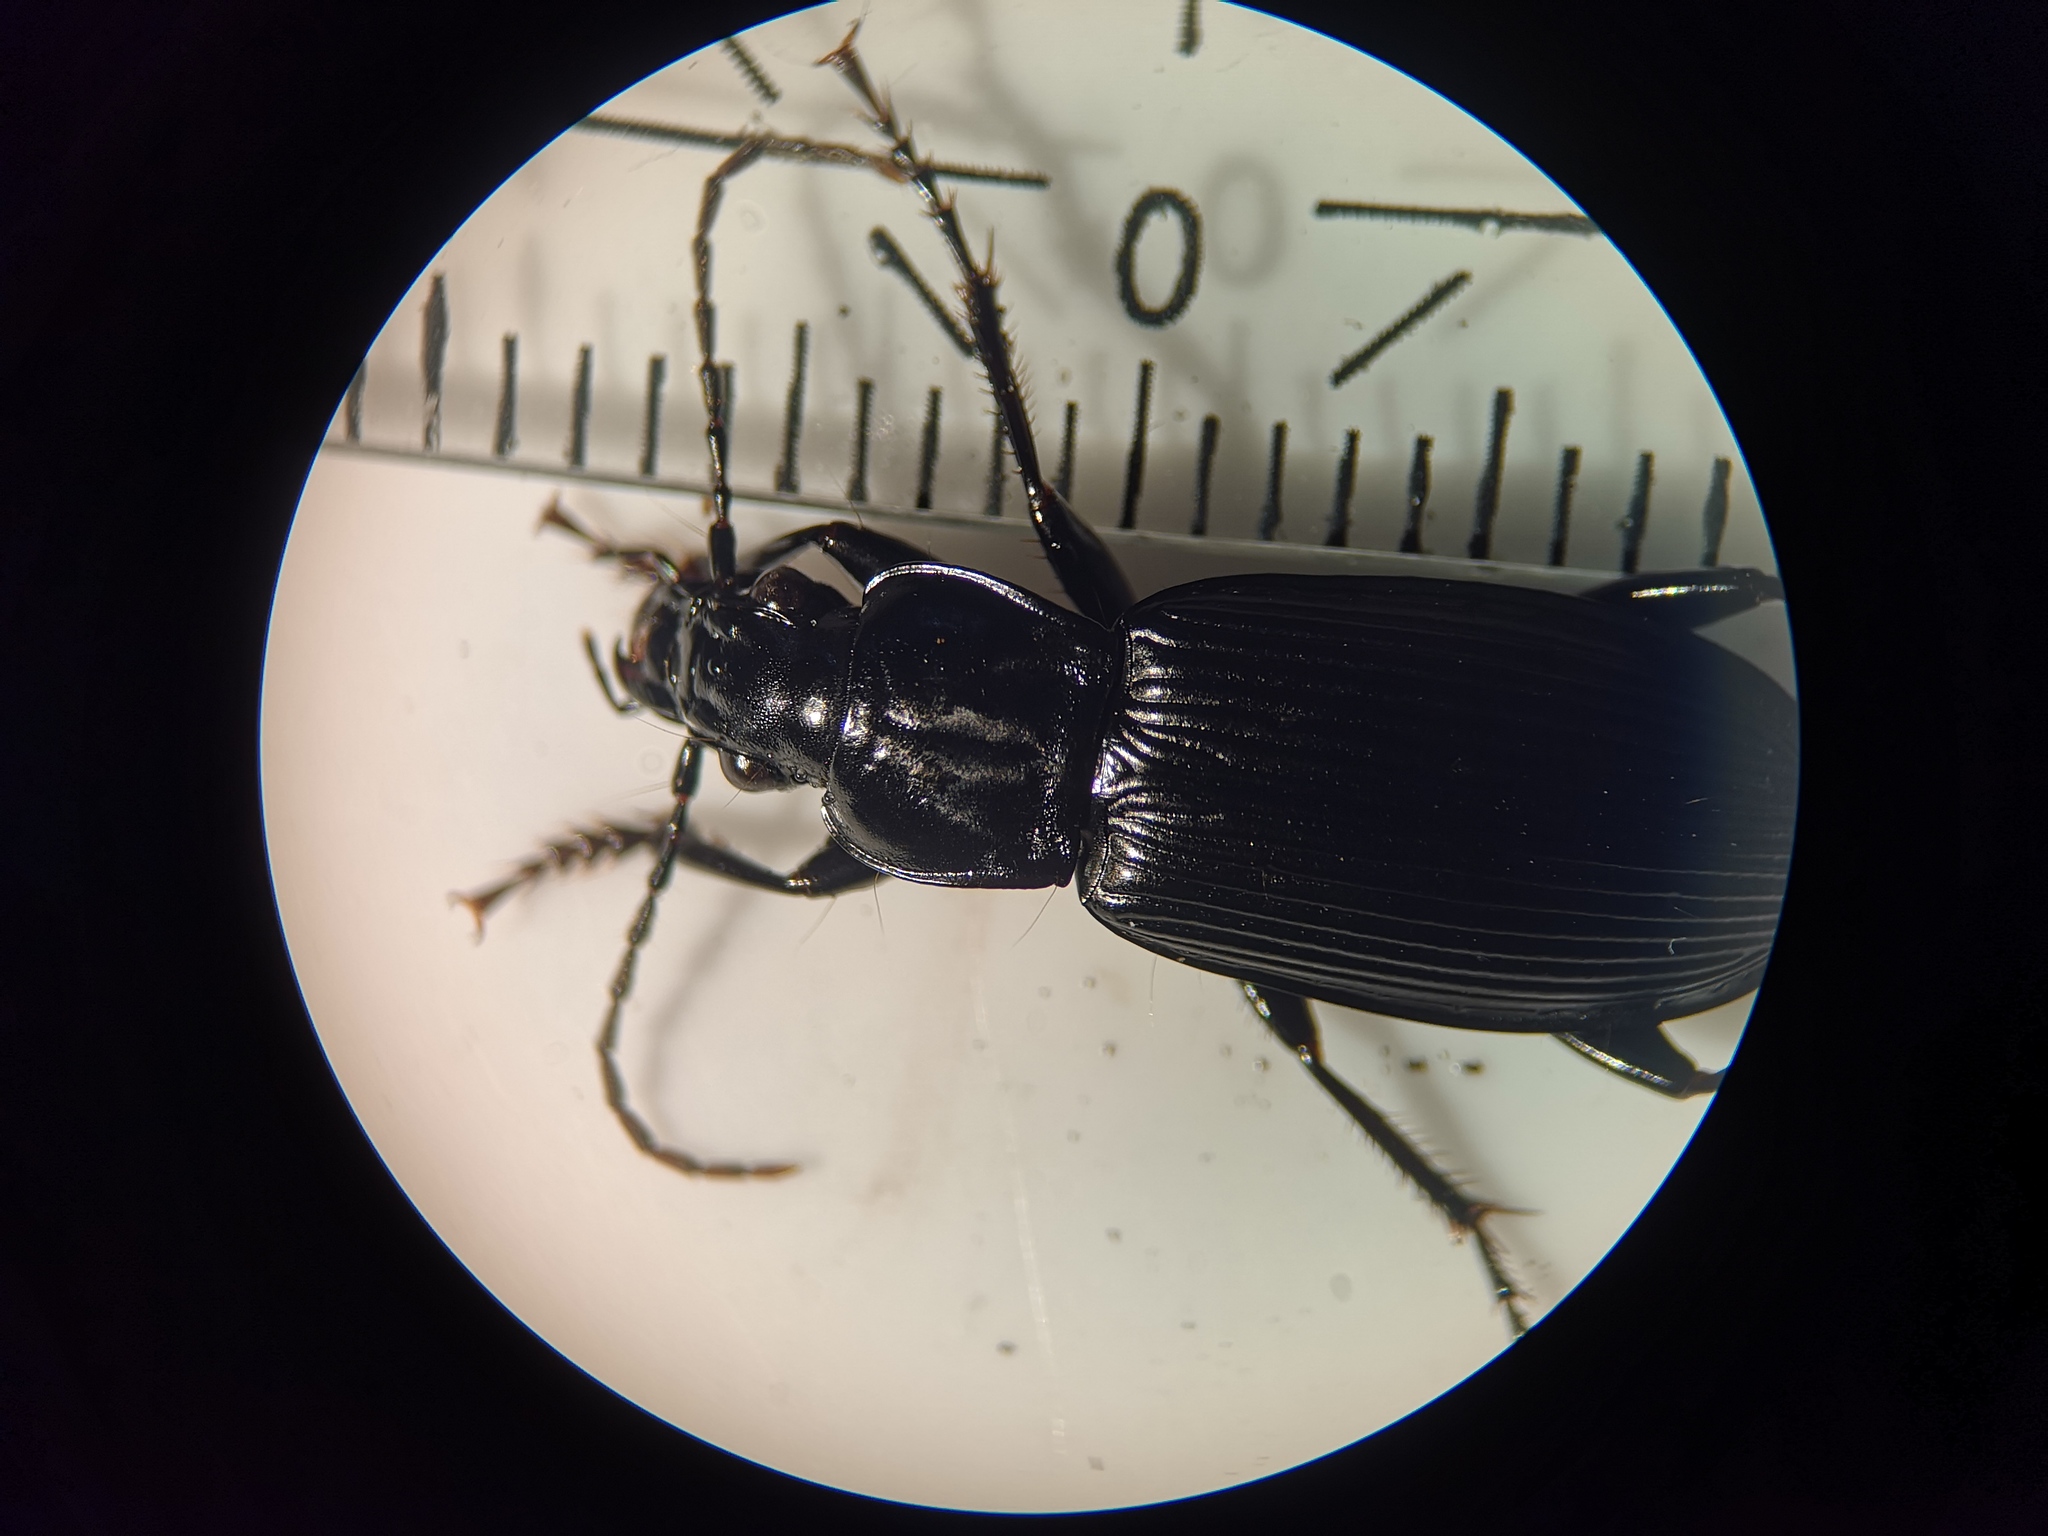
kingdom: Animalia
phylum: Arthropoda
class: Insecta
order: Coleoptera
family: Carabidae
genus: Pterostichus
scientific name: Pterostichus niger
